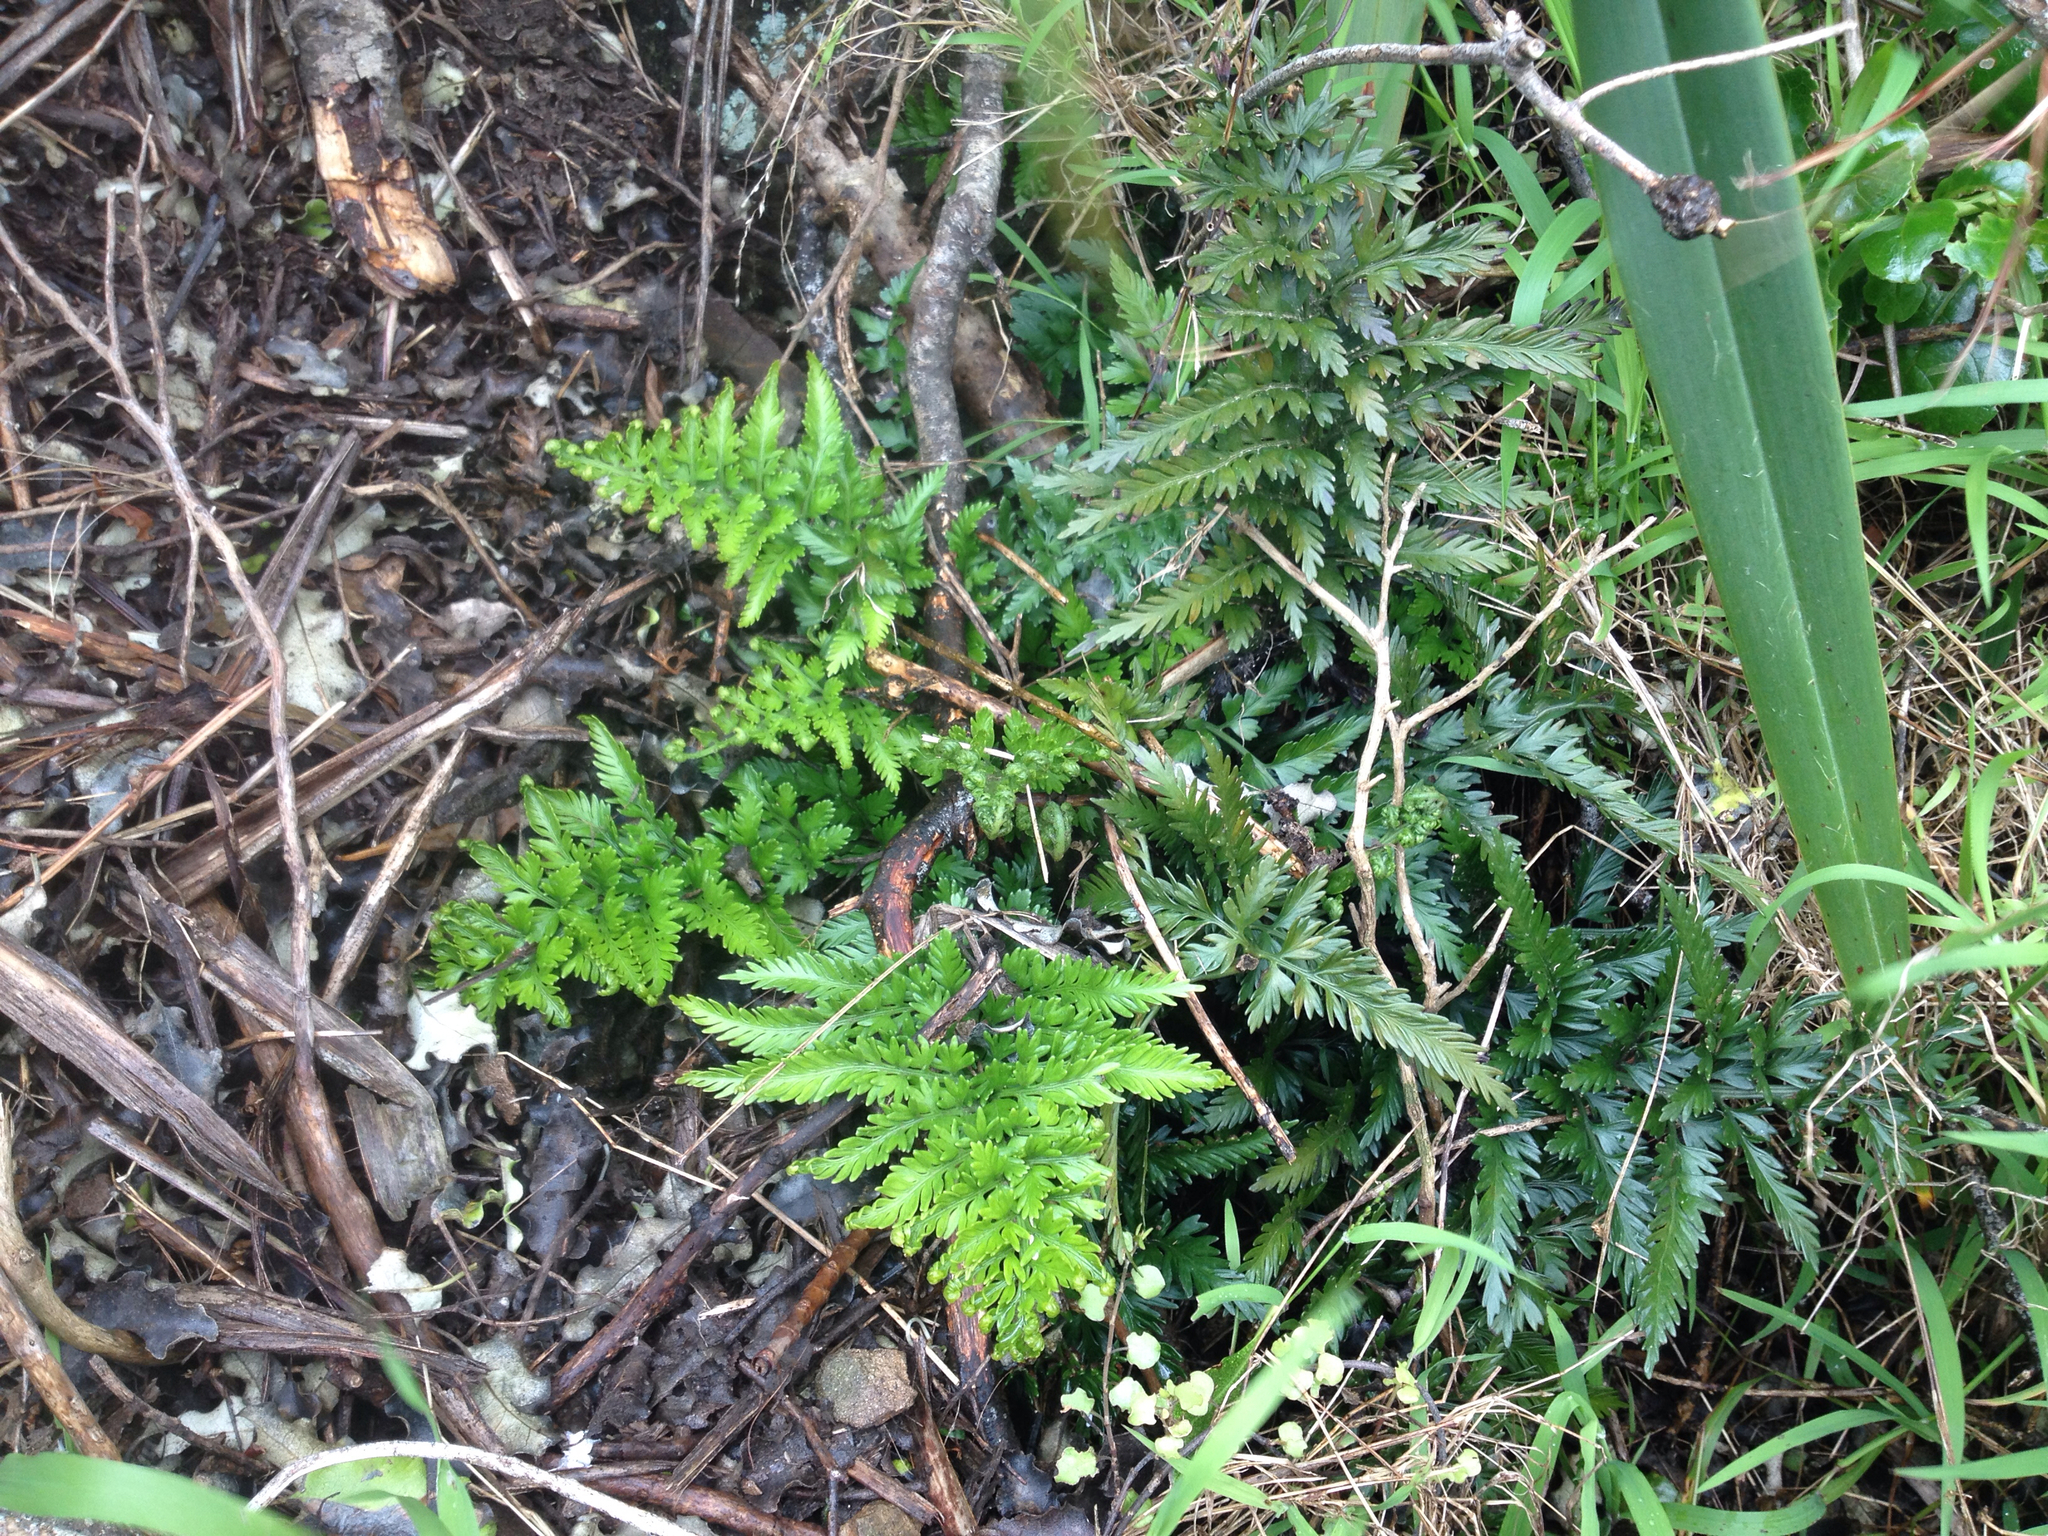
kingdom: Plantae
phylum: Tracheophyta
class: Polypodiopsida
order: Polypodiales
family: Aspleniaceae
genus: Asplenium
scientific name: Asplenium appendiculatum
